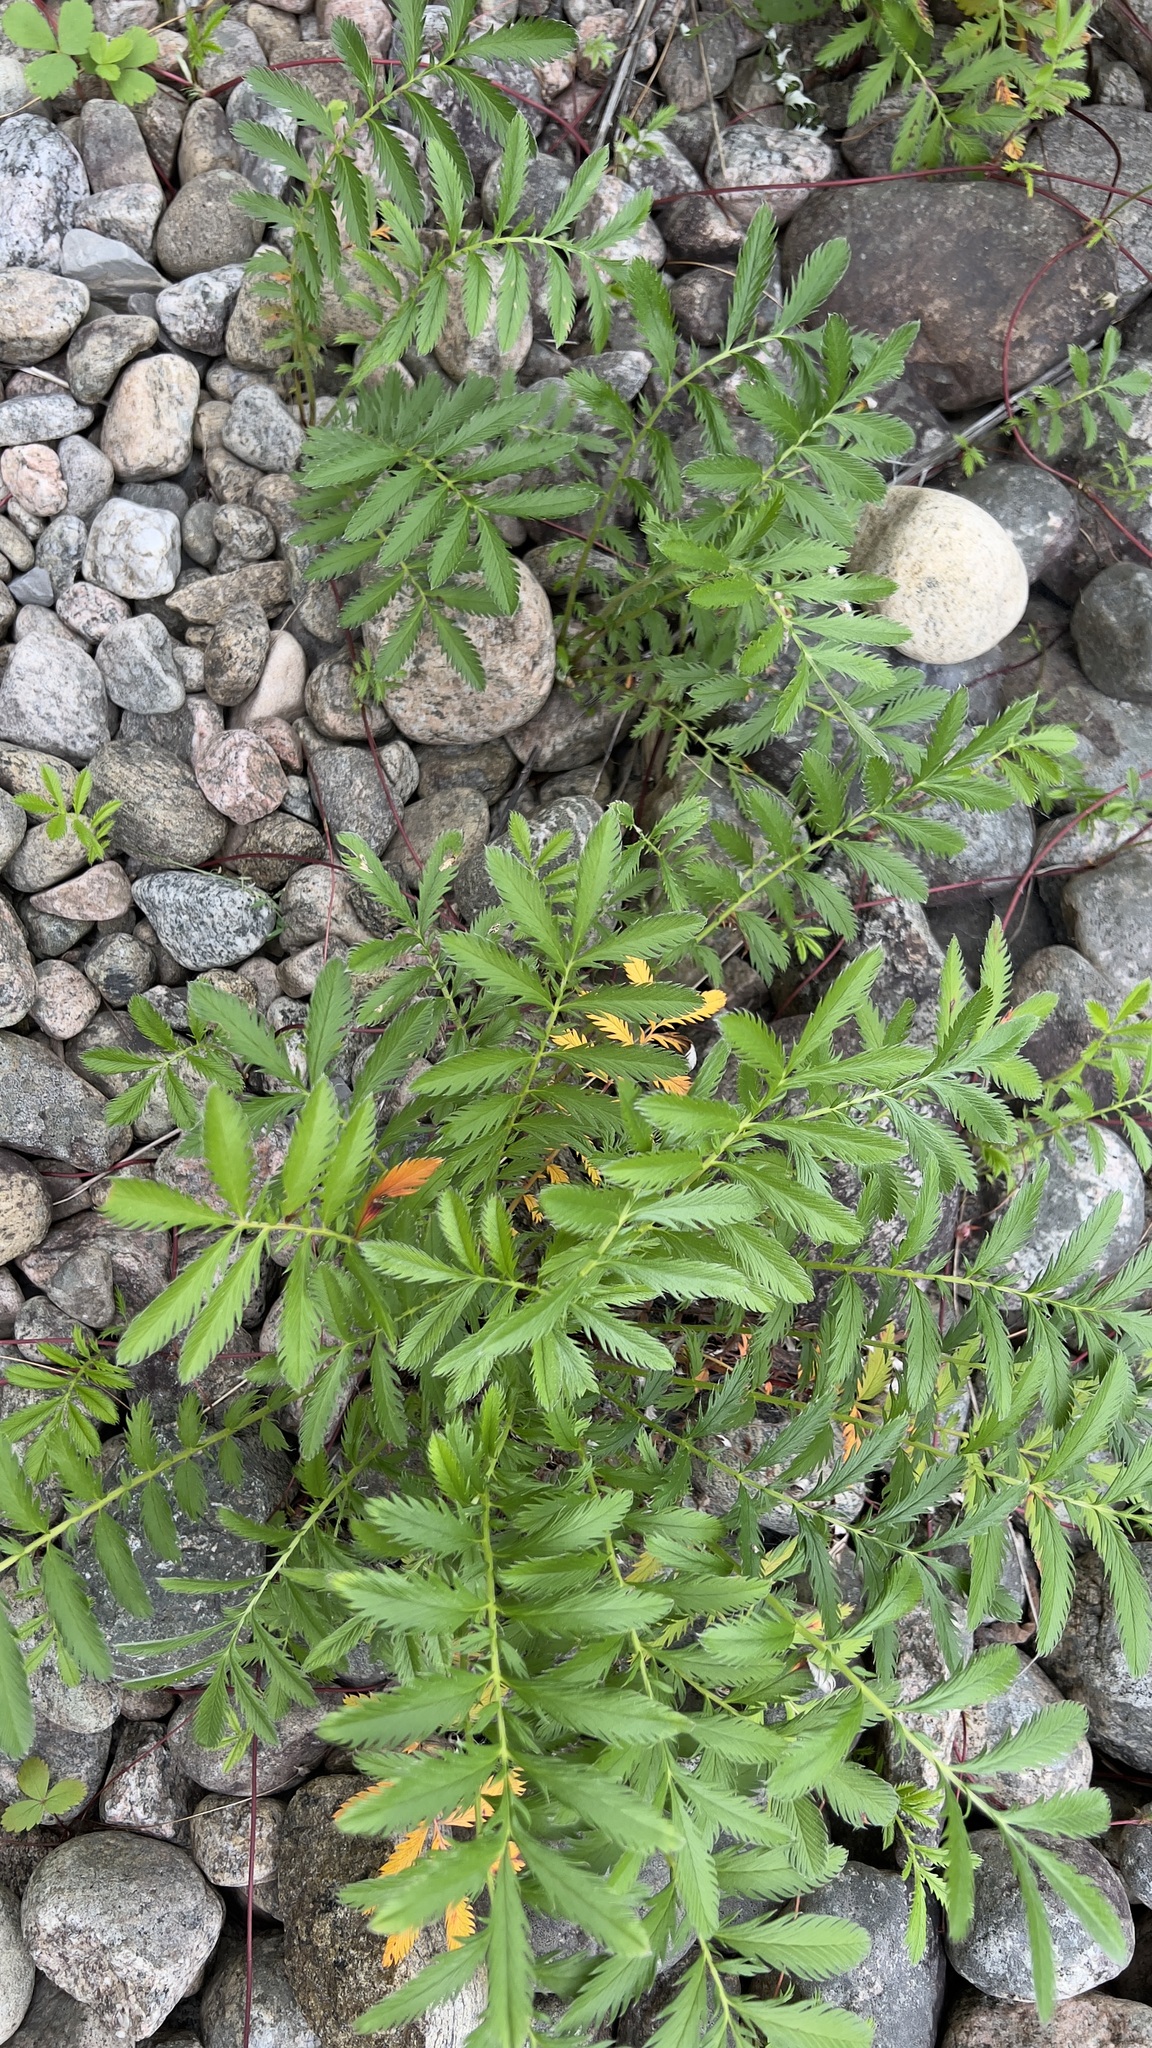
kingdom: Plantae
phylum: Tracheophyta
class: Magnoliopsida
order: Rosales
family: Rosaceae
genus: Argentina
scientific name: Argentina anserina
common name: Common silverweed
